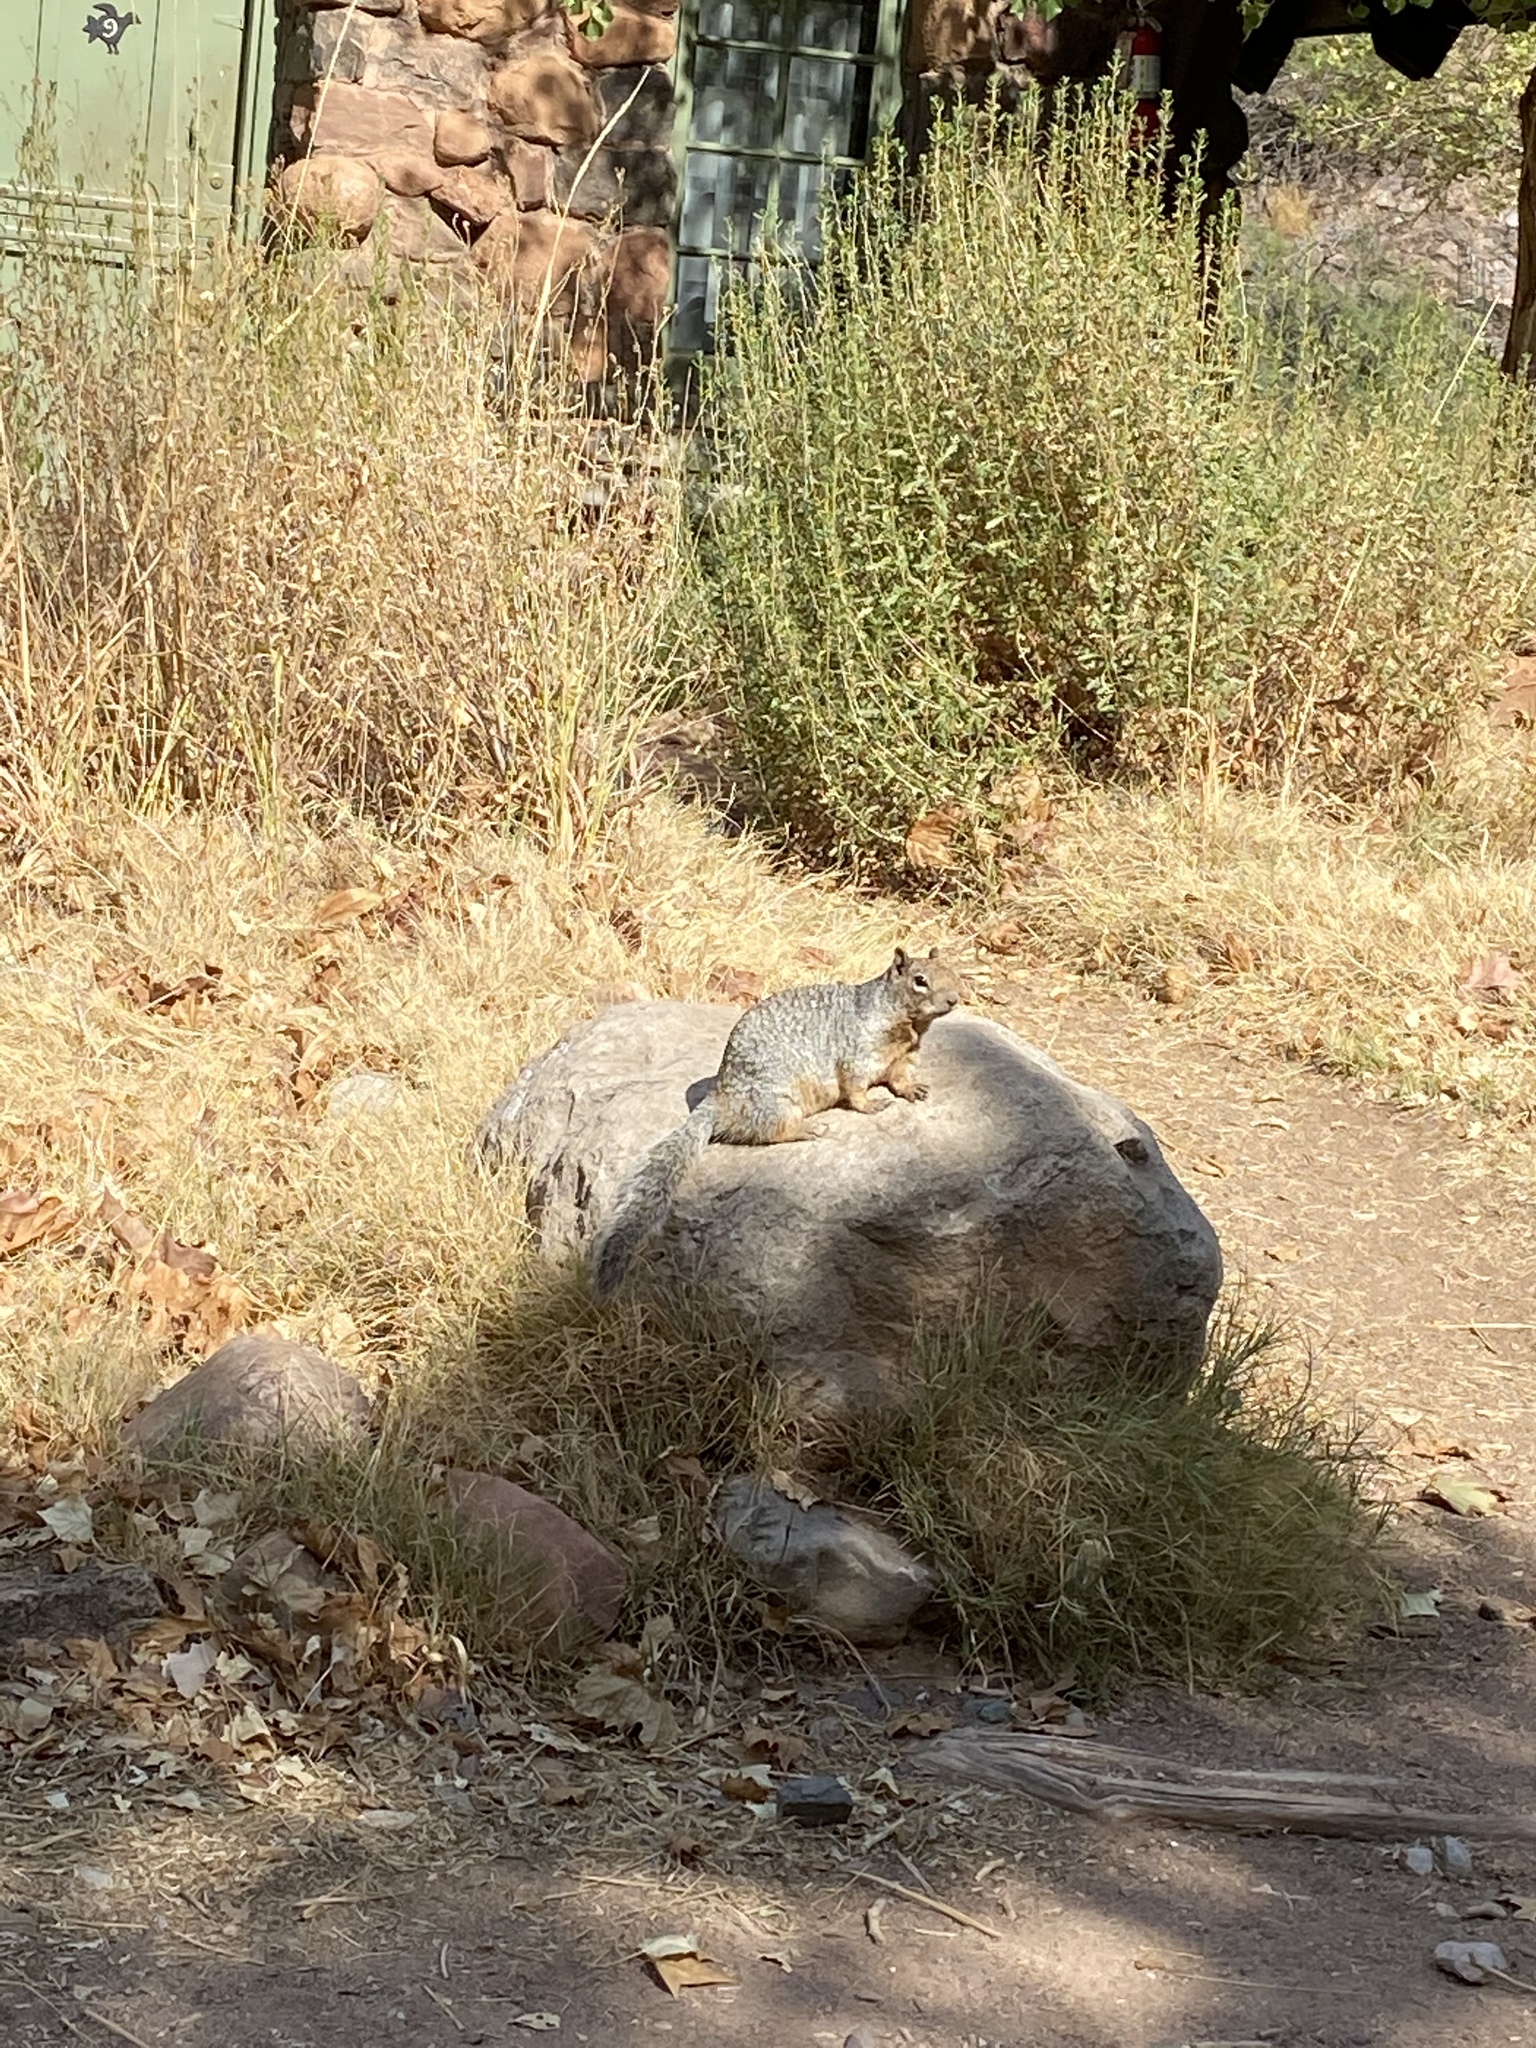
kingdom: Animalia
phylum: Chordata
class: Mammalia
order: Rodentia
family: Sciuridae
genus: Otospermophilus
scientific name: Otospermophilus variegatus
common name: Rock squirrel
